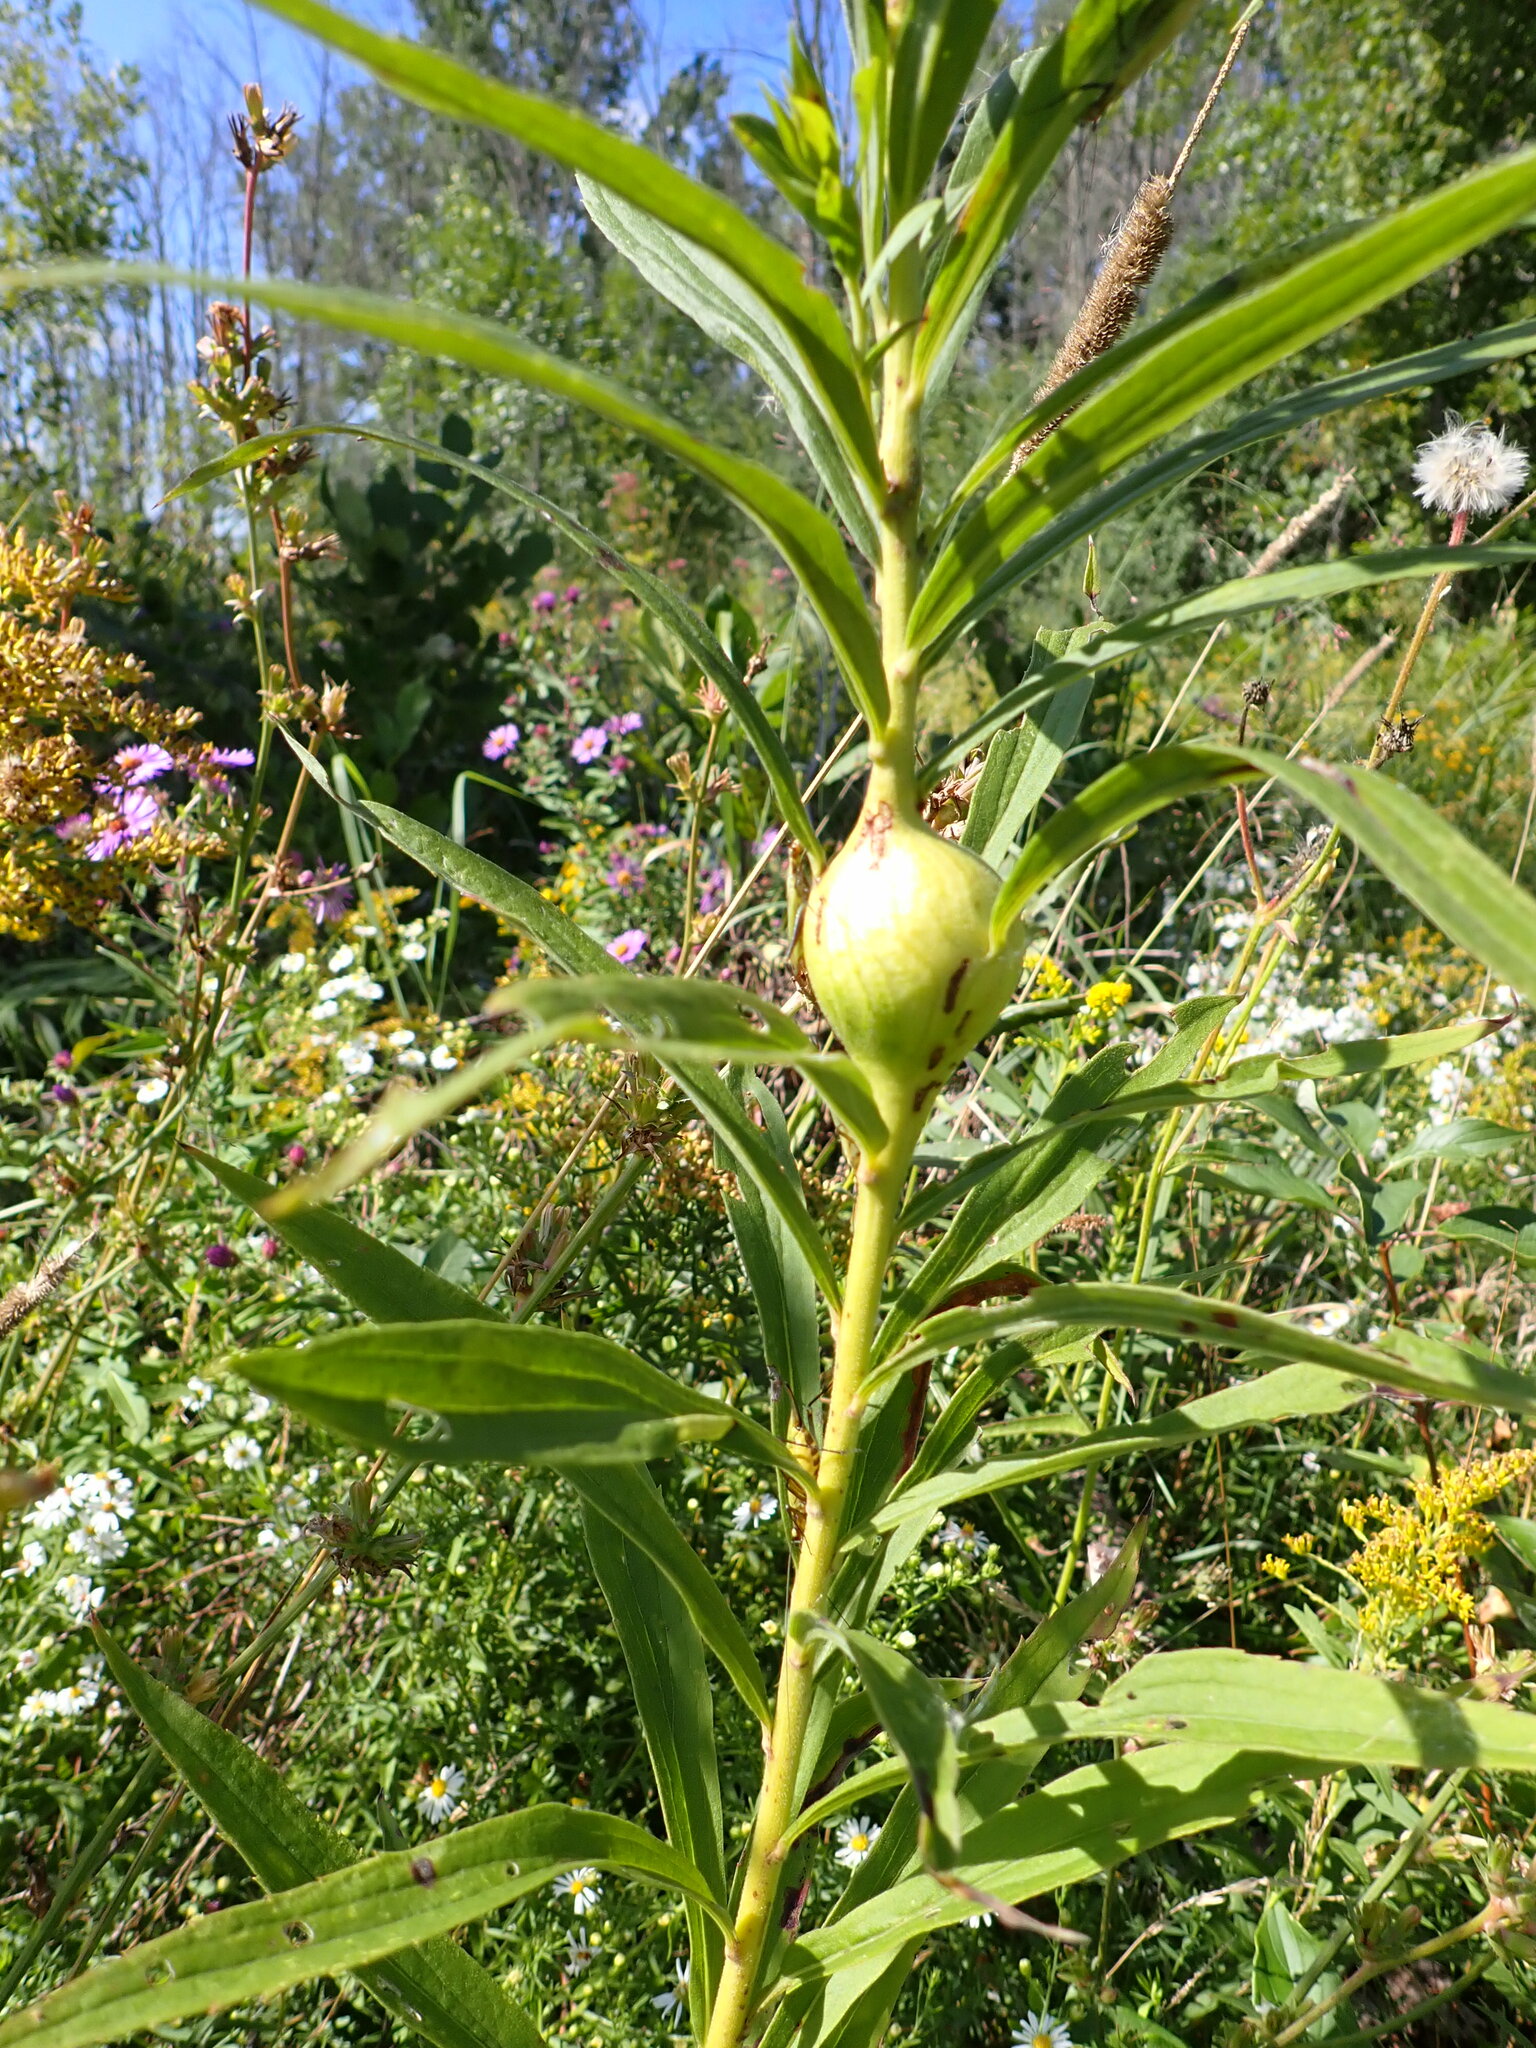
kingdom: Animalia
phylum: Arthropoda
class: Insecta
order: Diptera
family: Tephritidae
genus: Eurosta
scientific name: Eurosta solidaginis
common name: Goldenrod gall fly
